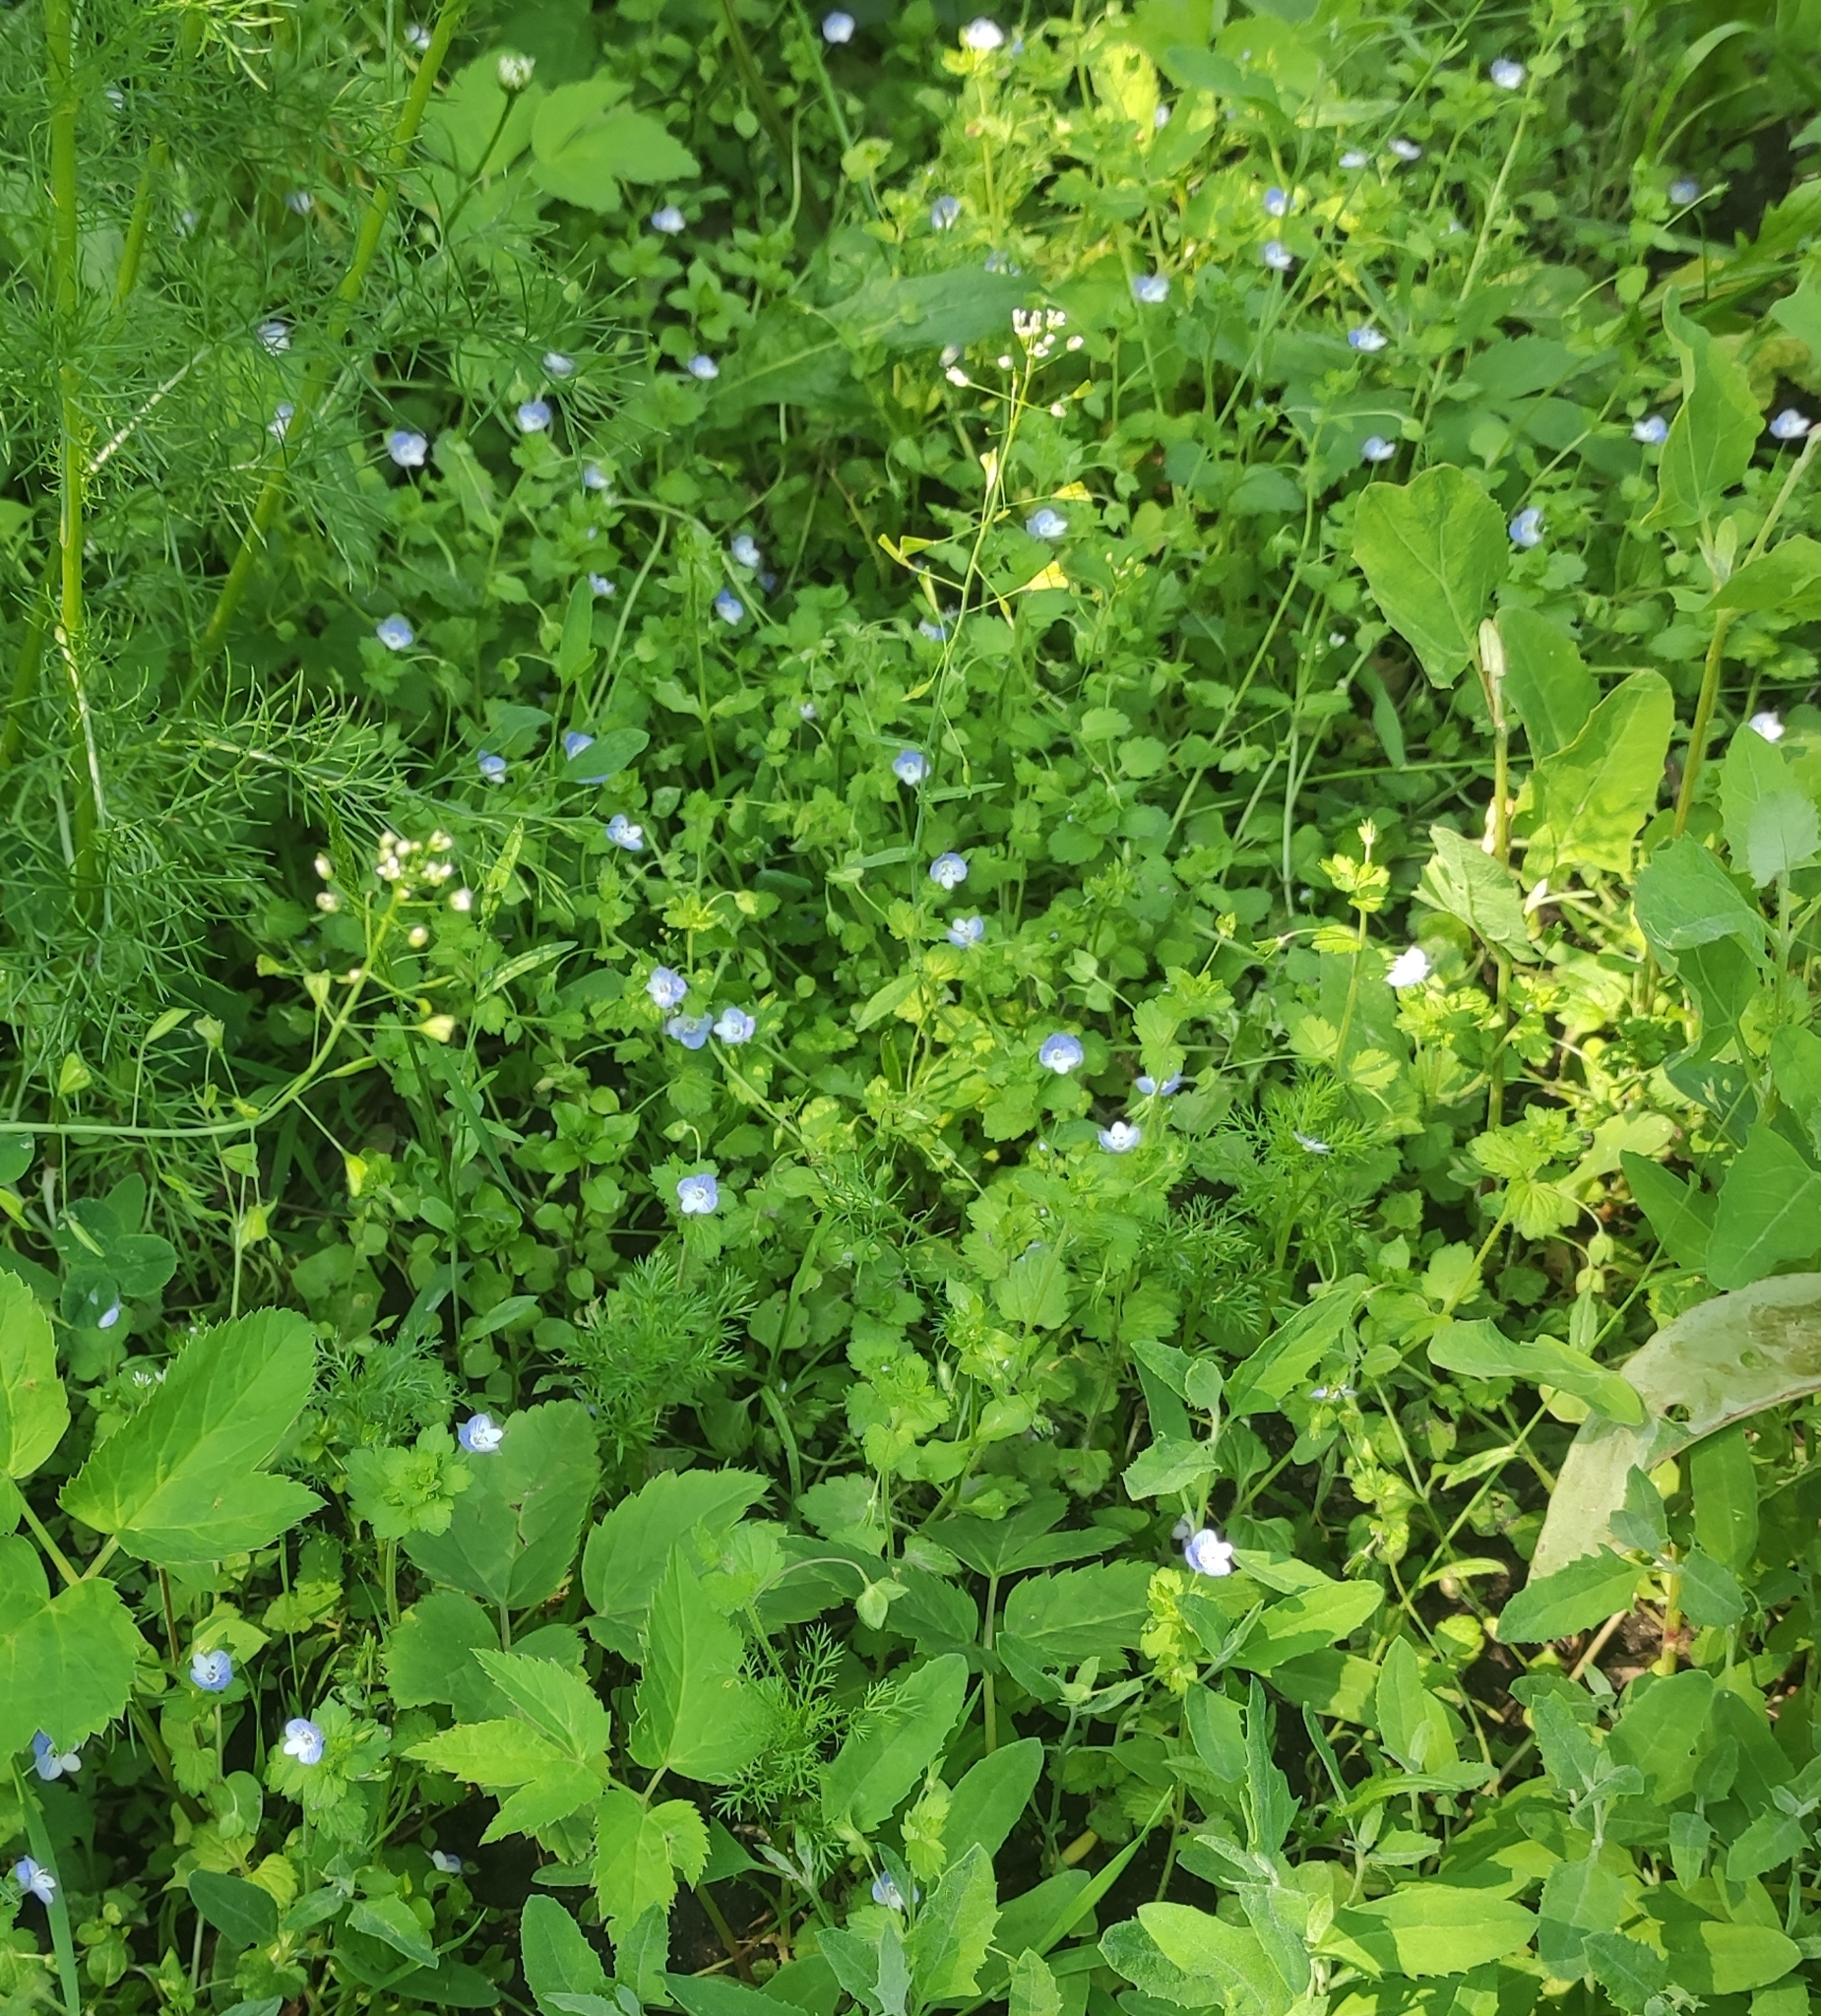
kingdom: Plantae
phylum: Tracheophyta
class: Magnoliopsida
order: Lamiales
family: Plantaginaceae
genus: Veronica
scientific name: Veronica persica
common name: Common field-speedwell
